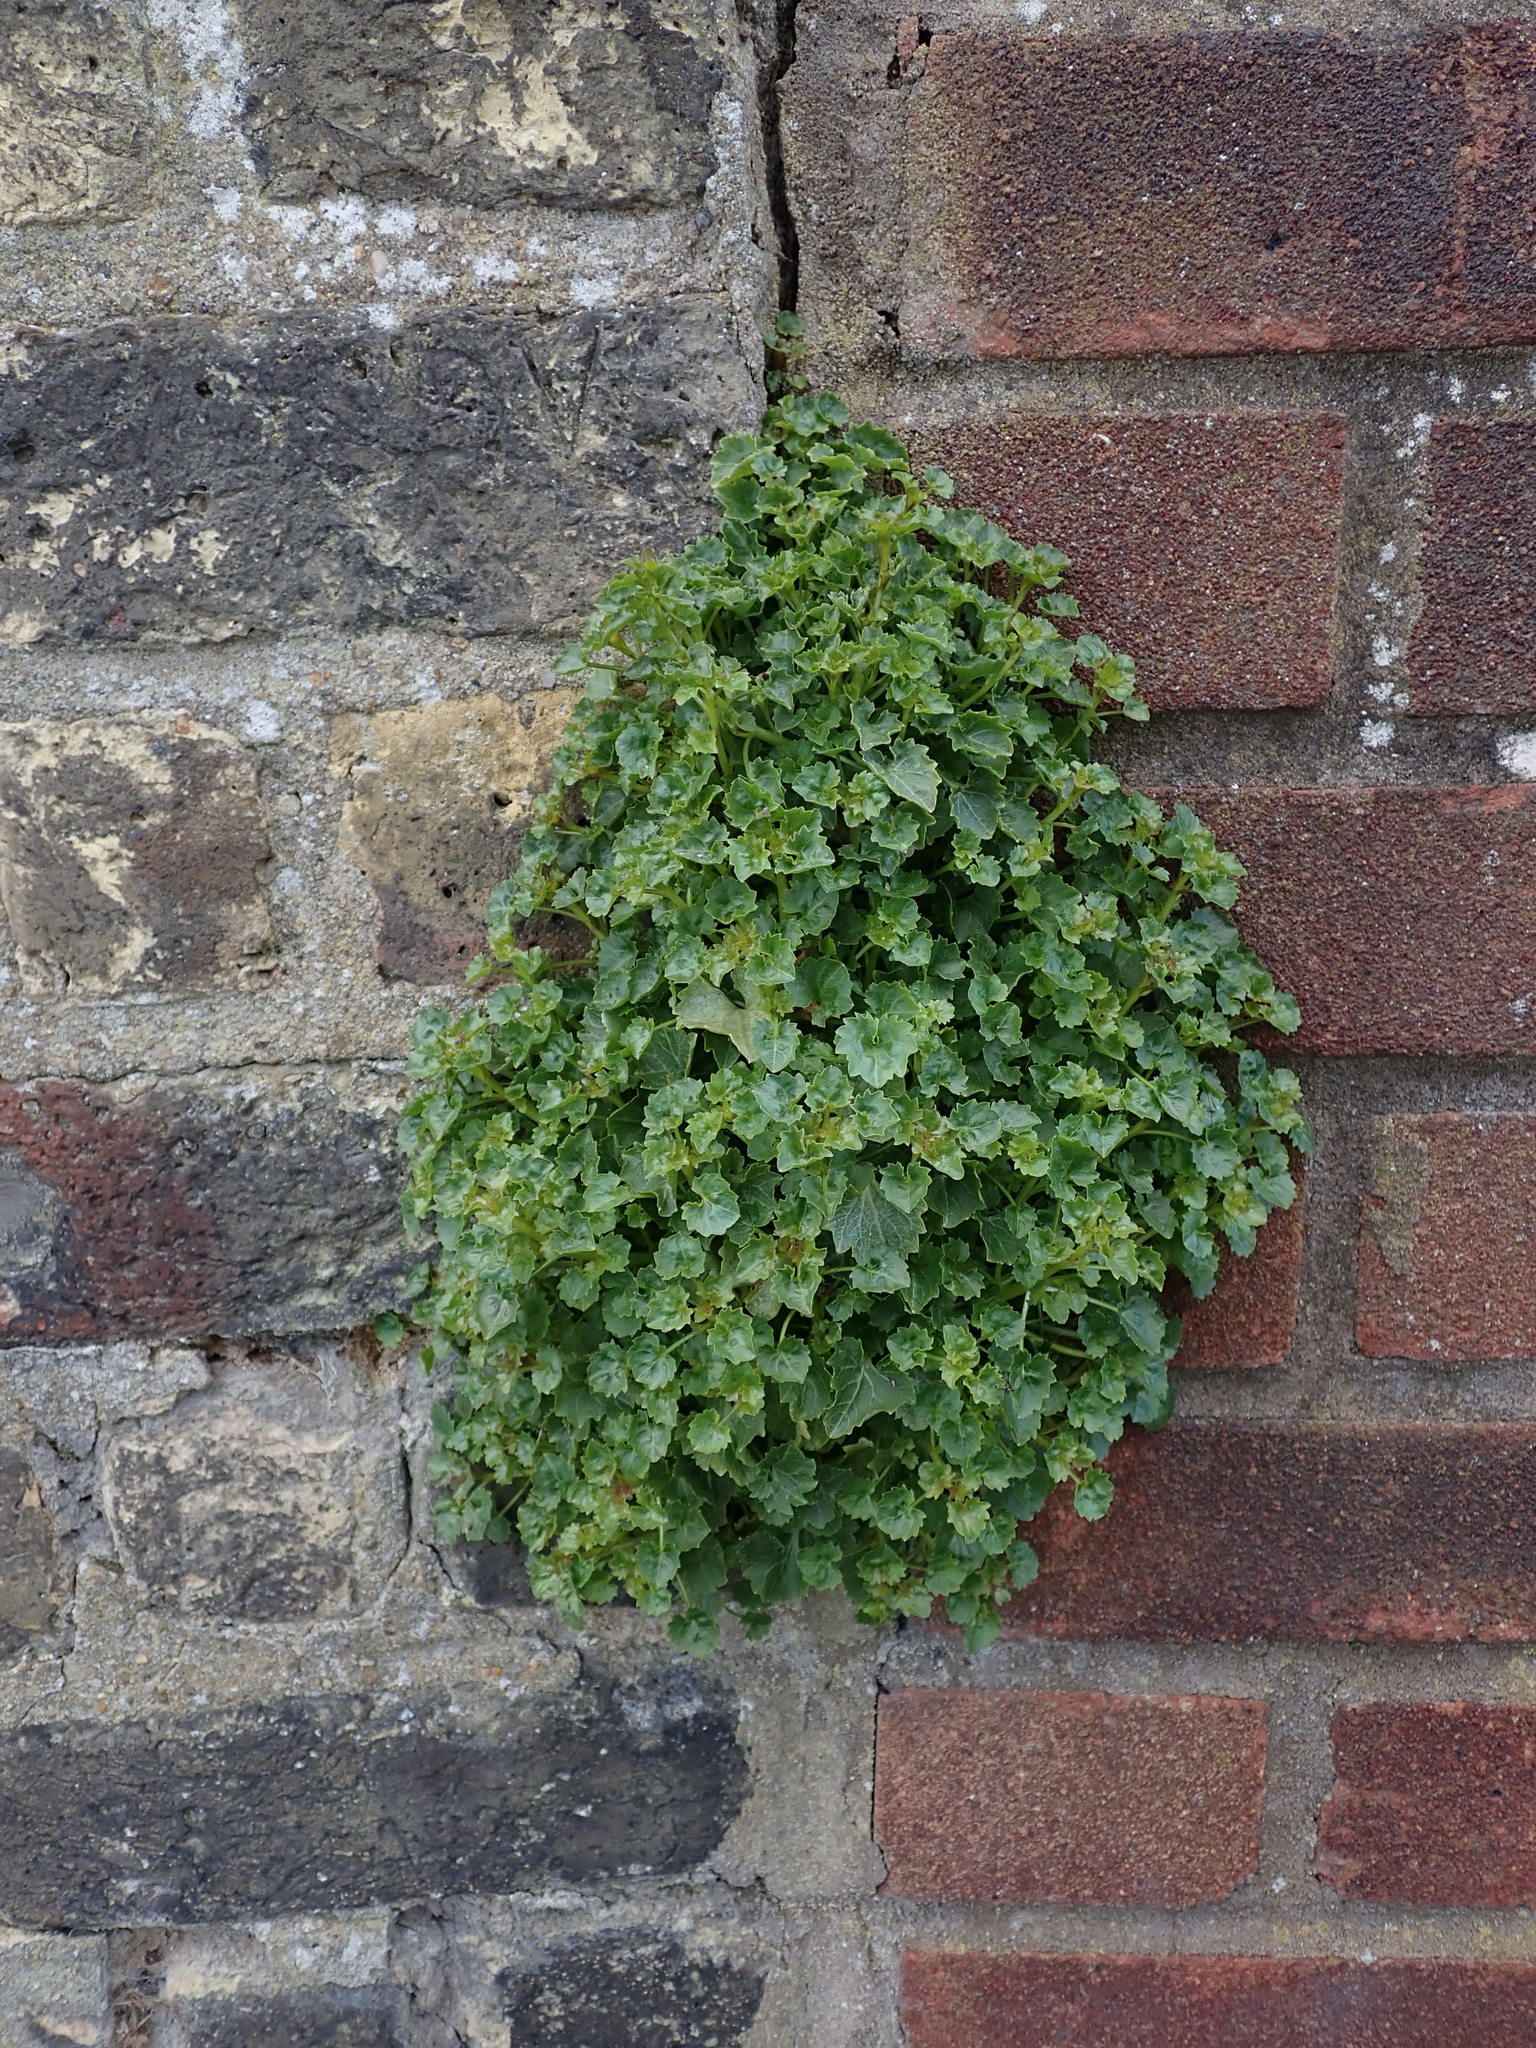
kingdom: Plantae
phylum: Tracheophyta
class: Magnoliopsida
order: Asterales
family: Campanulaceae
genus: Campanula
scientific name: Campanula portenschlagiana
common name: Adria bellflower
